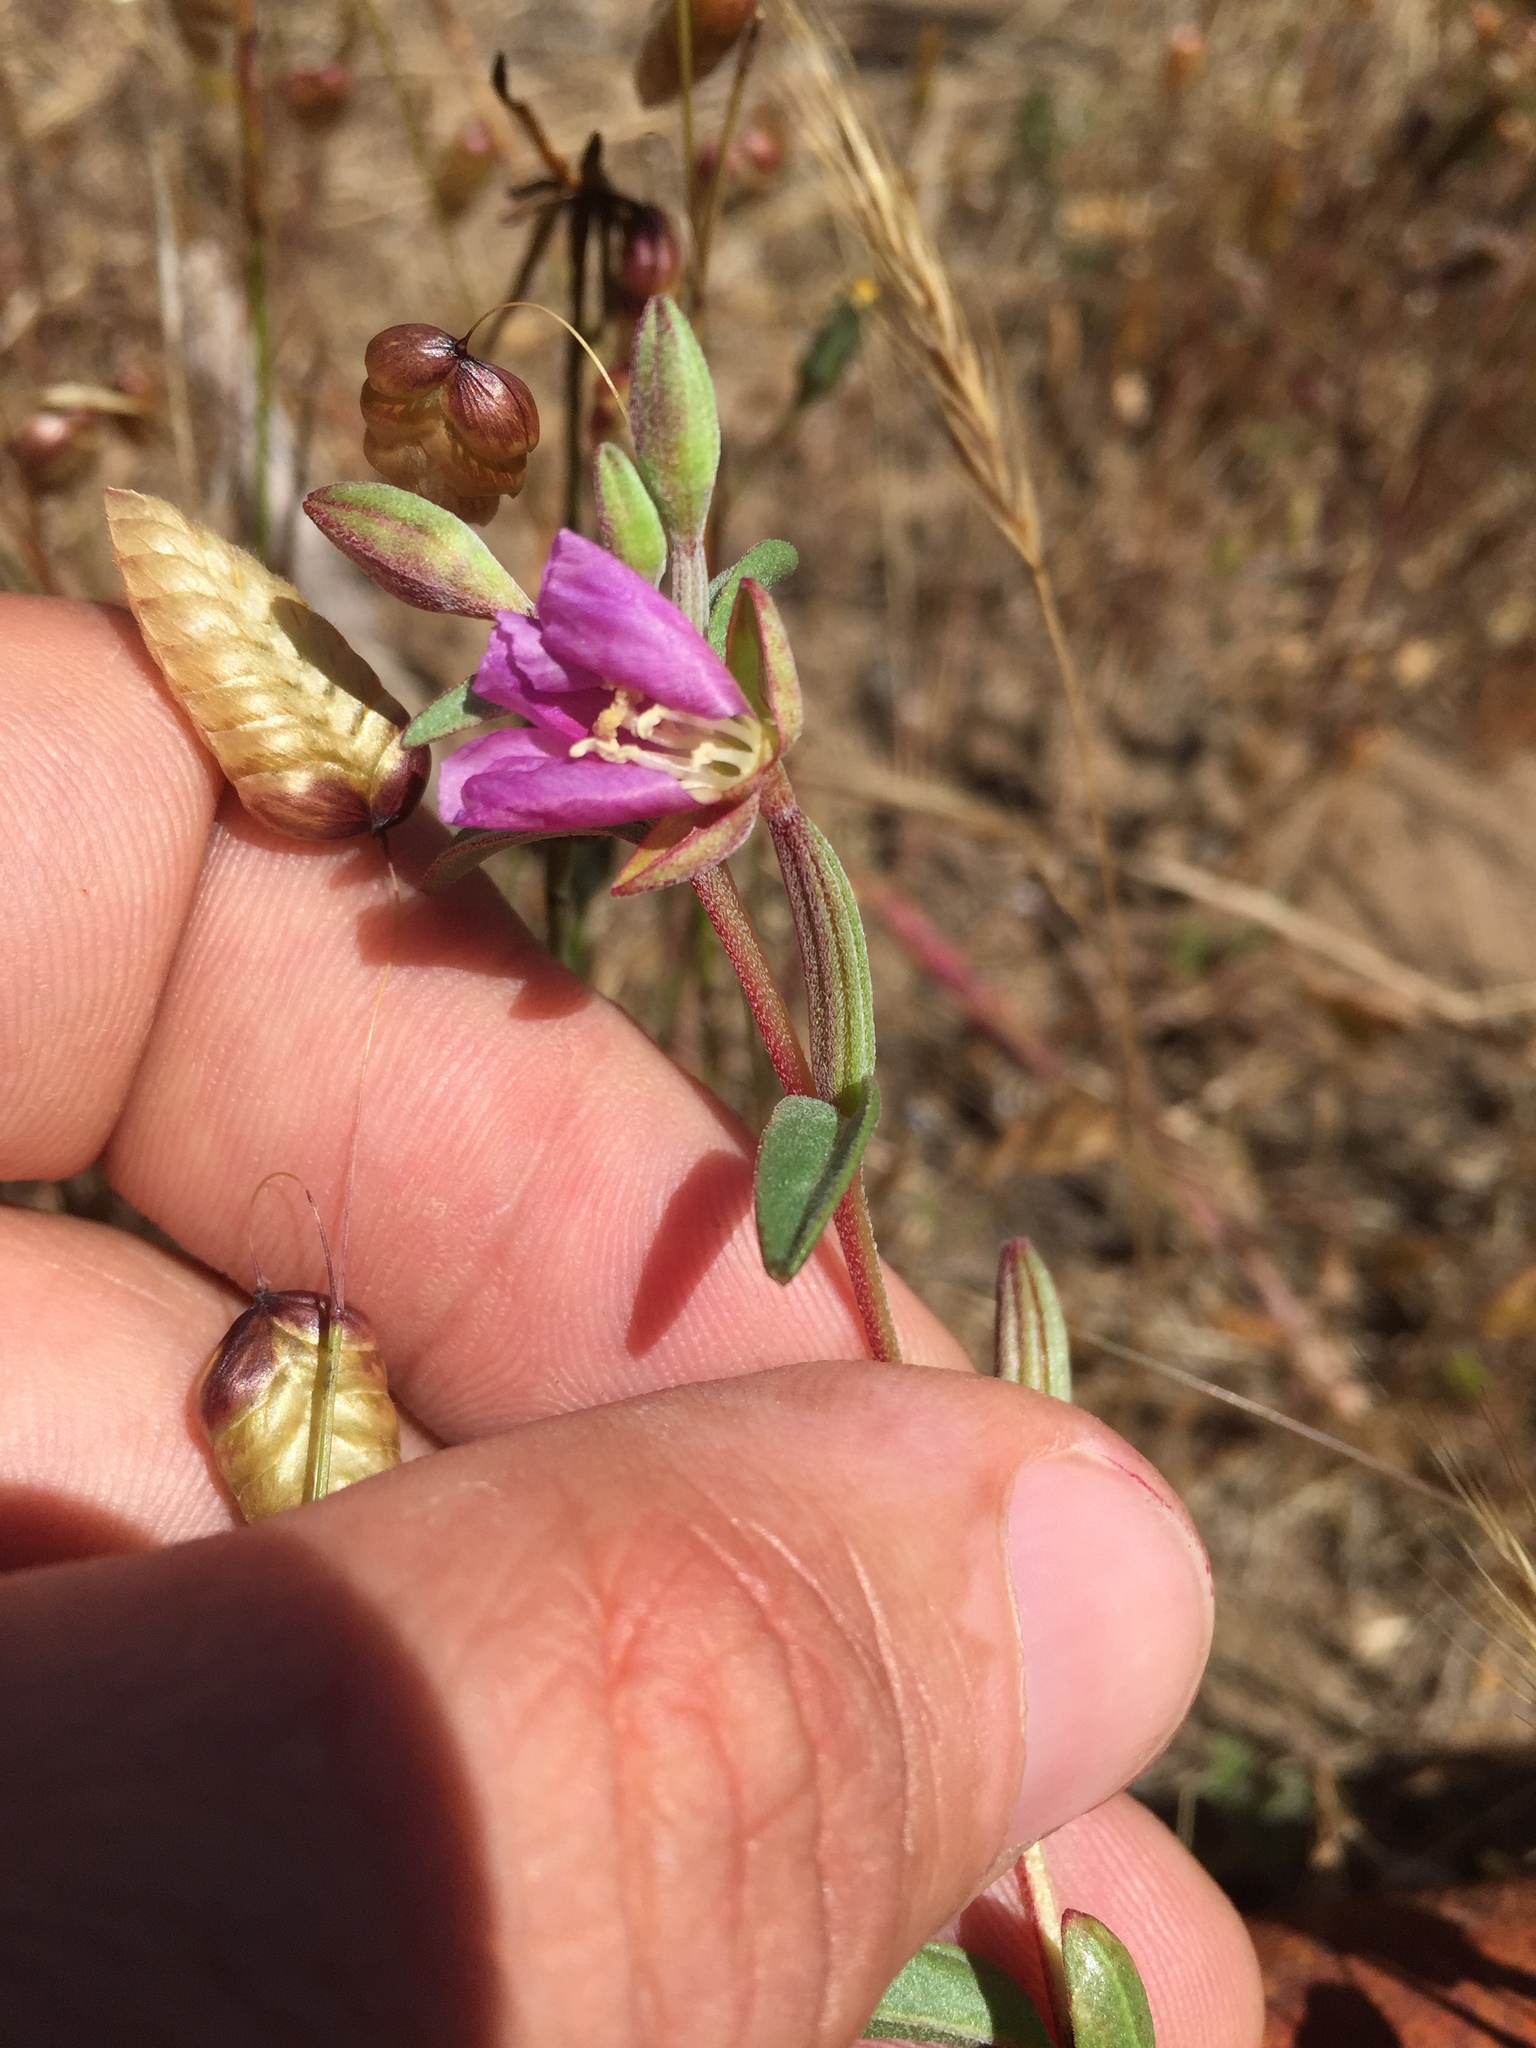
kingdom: Plantae
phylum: Tracheophyta
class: Magnoliopsida
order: Myrtales
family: Onagraceae
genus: Clarkia
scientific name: Clarkia davyi
